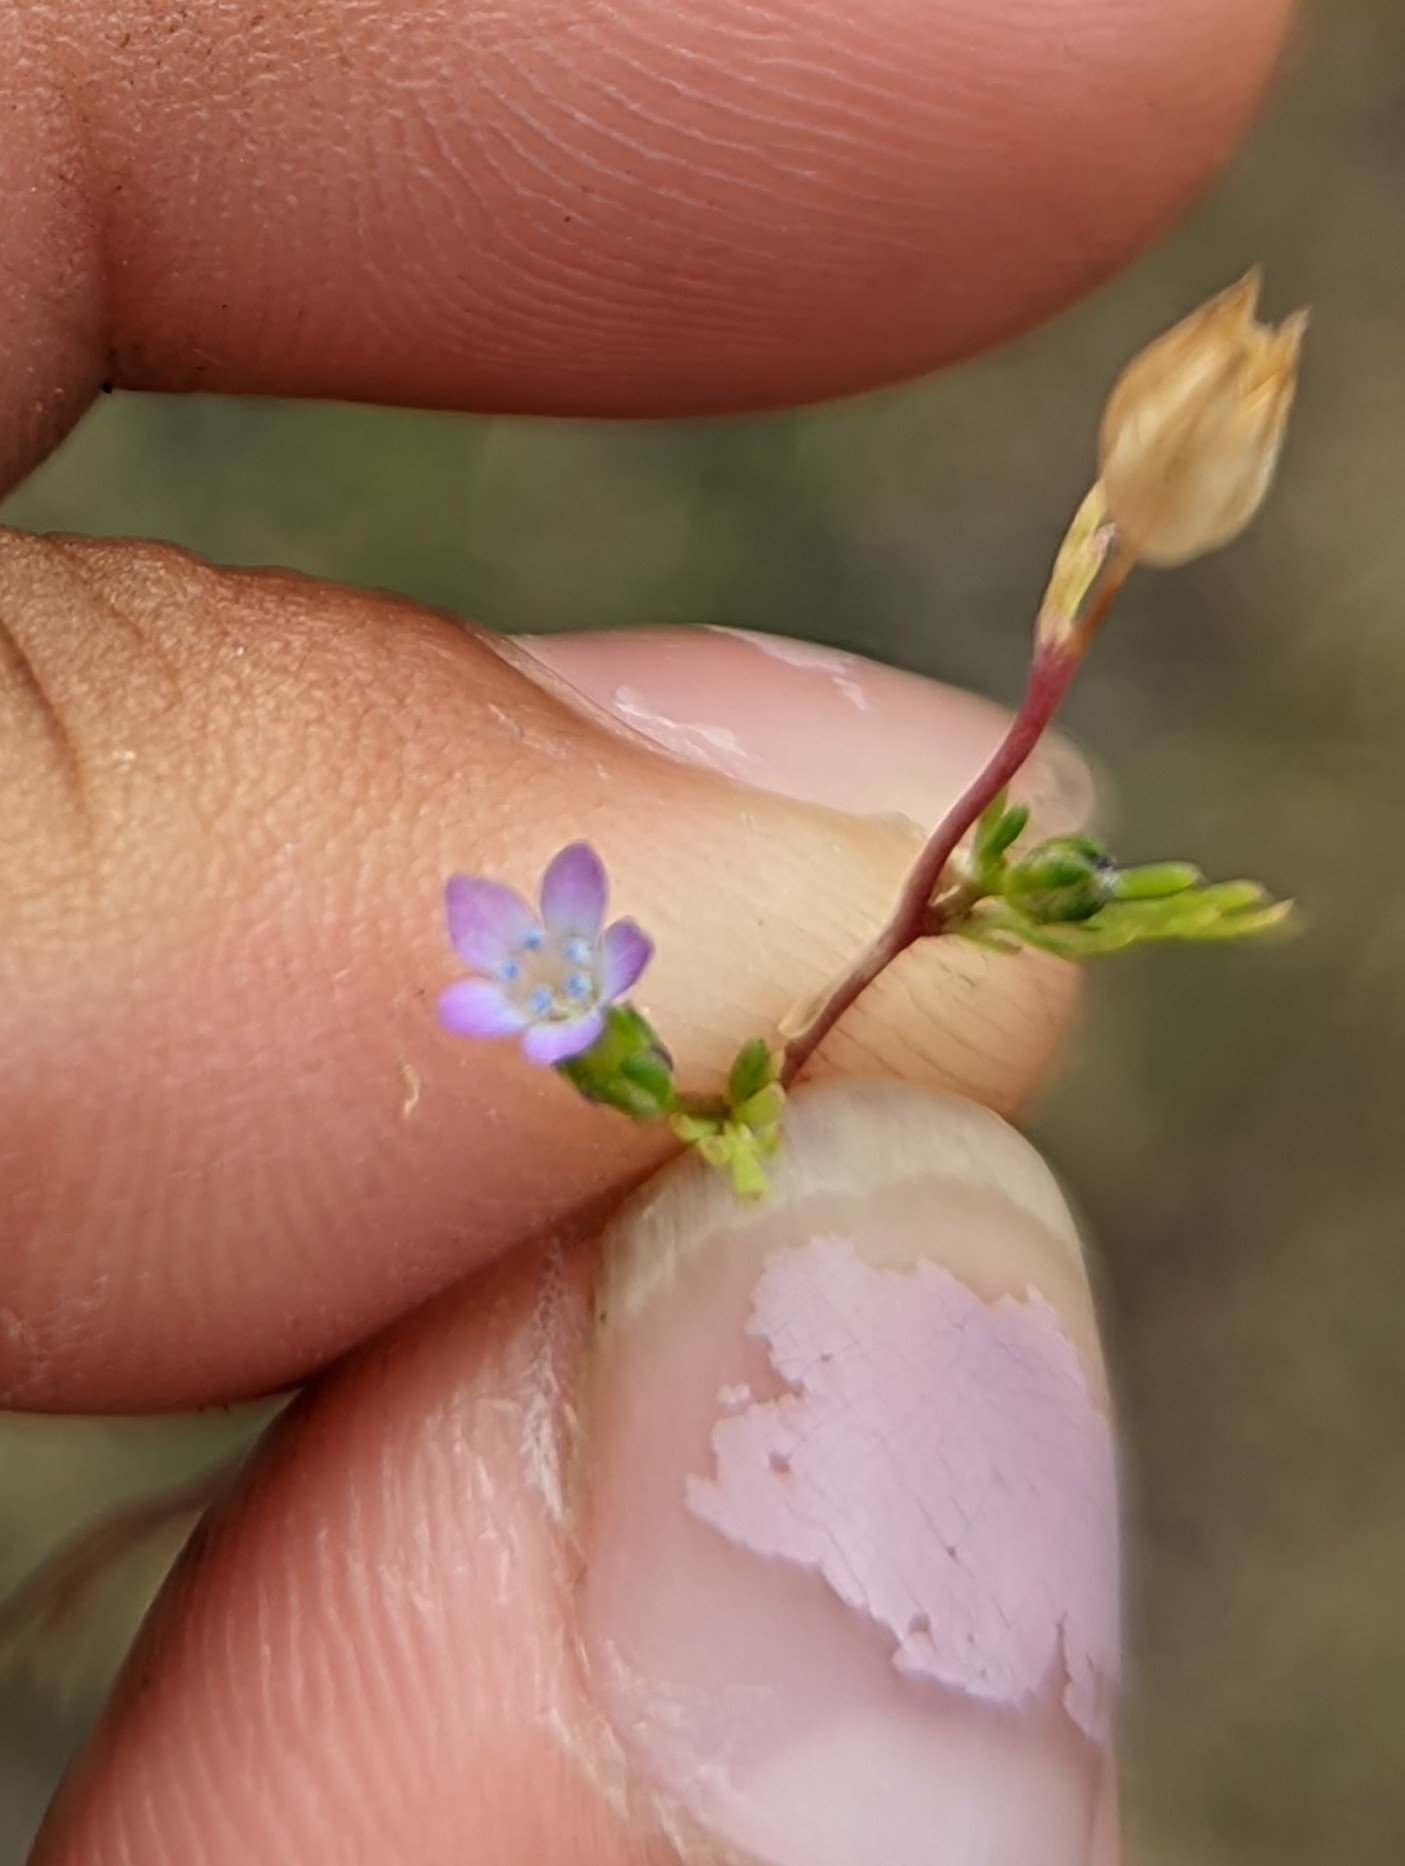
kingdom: Plantae
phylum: Tracheophyta
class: Magnoliopsida
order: Ericales
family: Polemoniaceae
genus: Gilia
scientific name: Gilia clivorum
